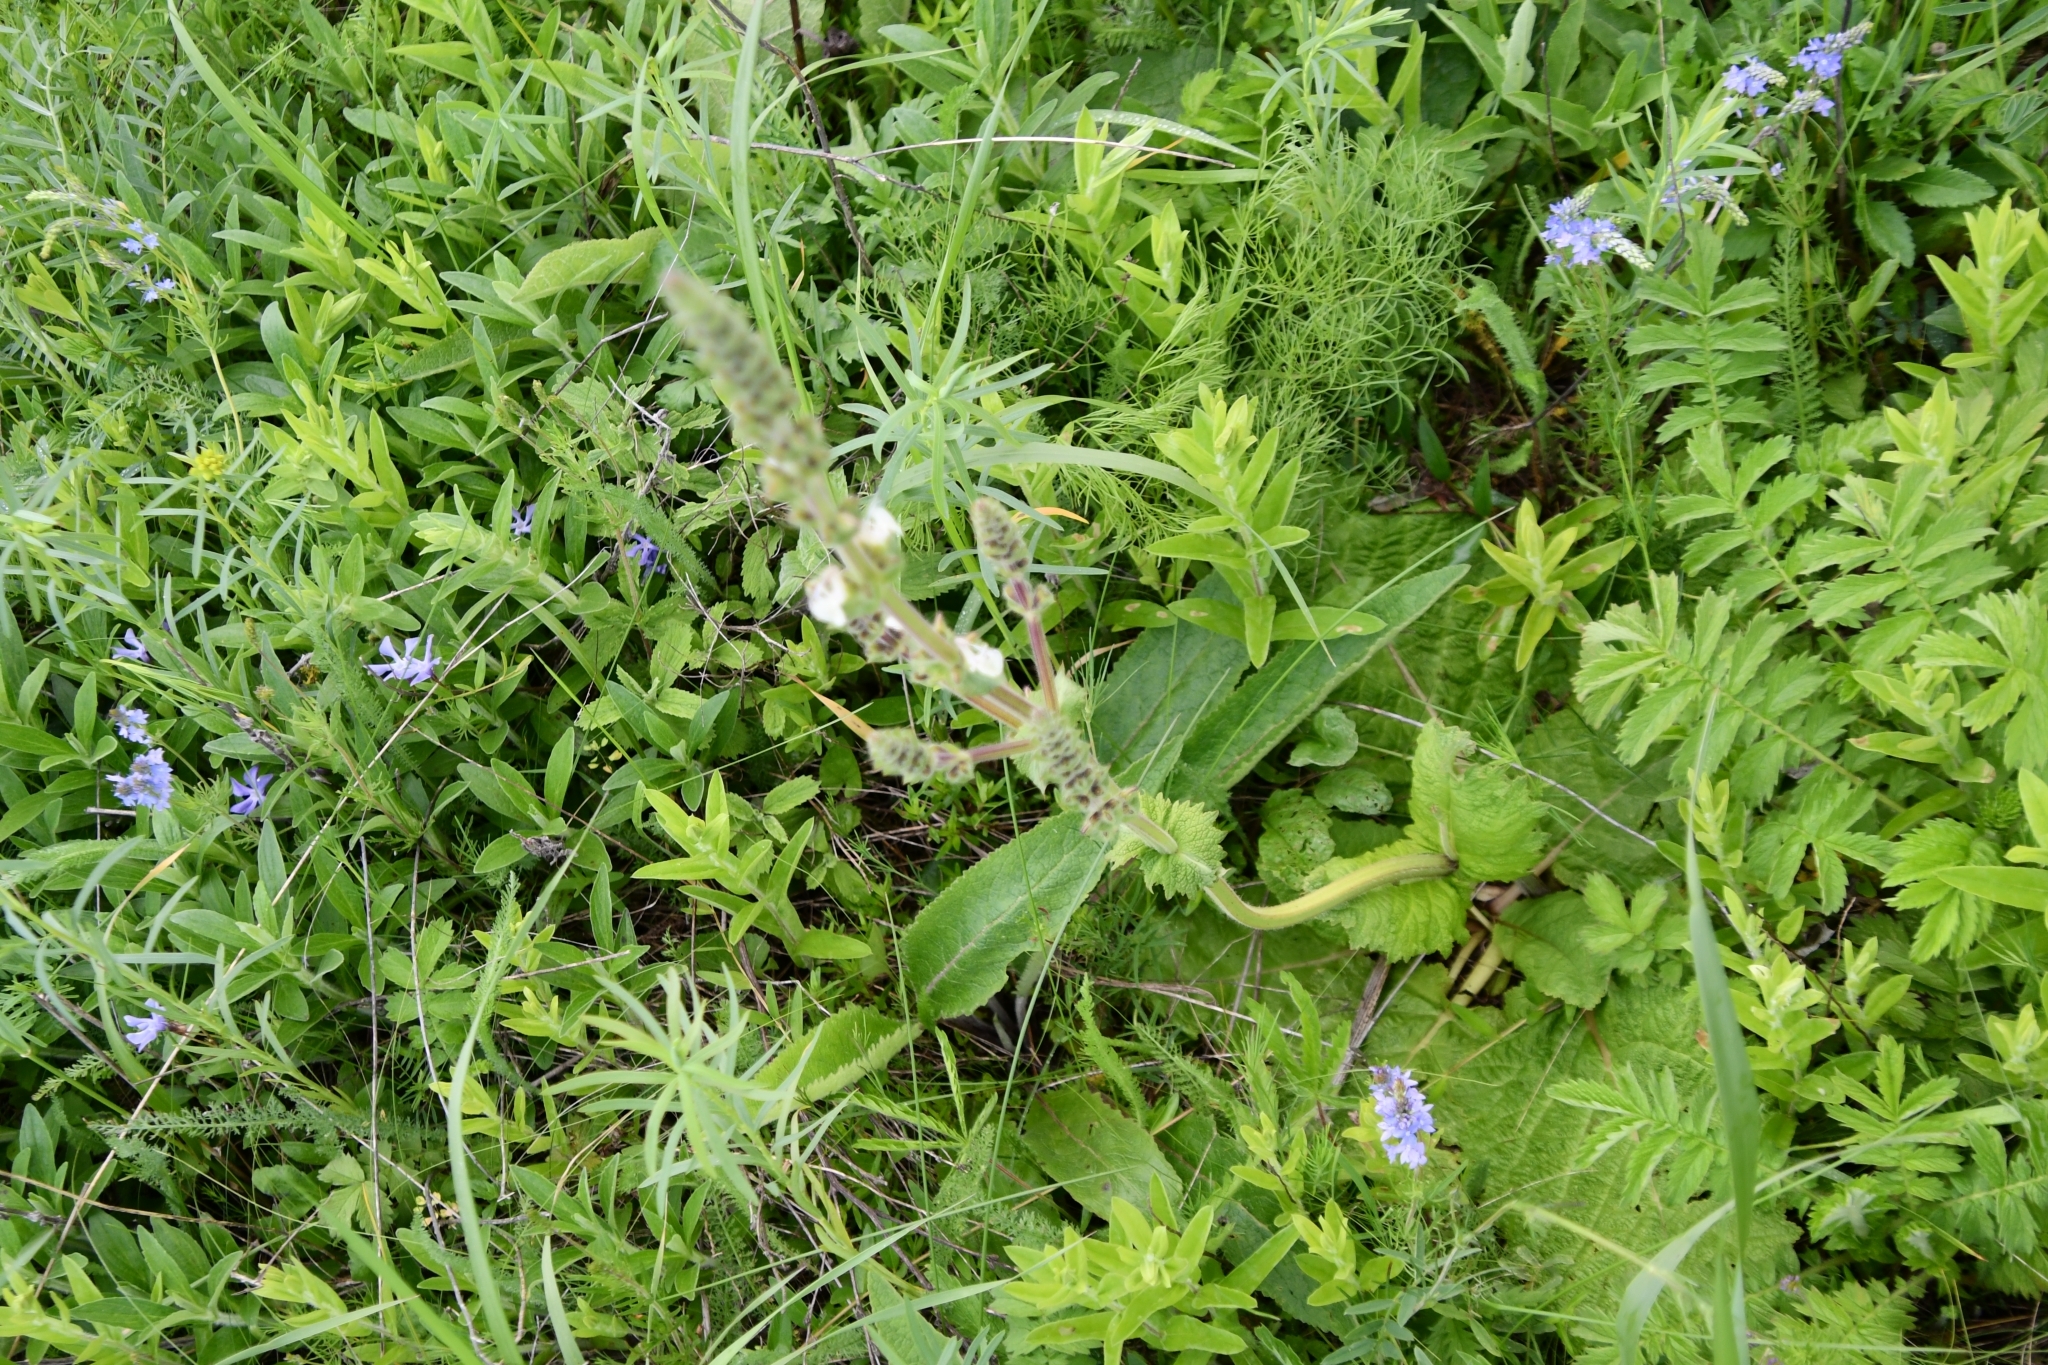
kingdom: Plantae
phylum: Tracheophyta
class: Magnoliopsida
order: Lamiales
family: Lamiaceae
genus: Salvia
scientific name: Salvia revoluta
